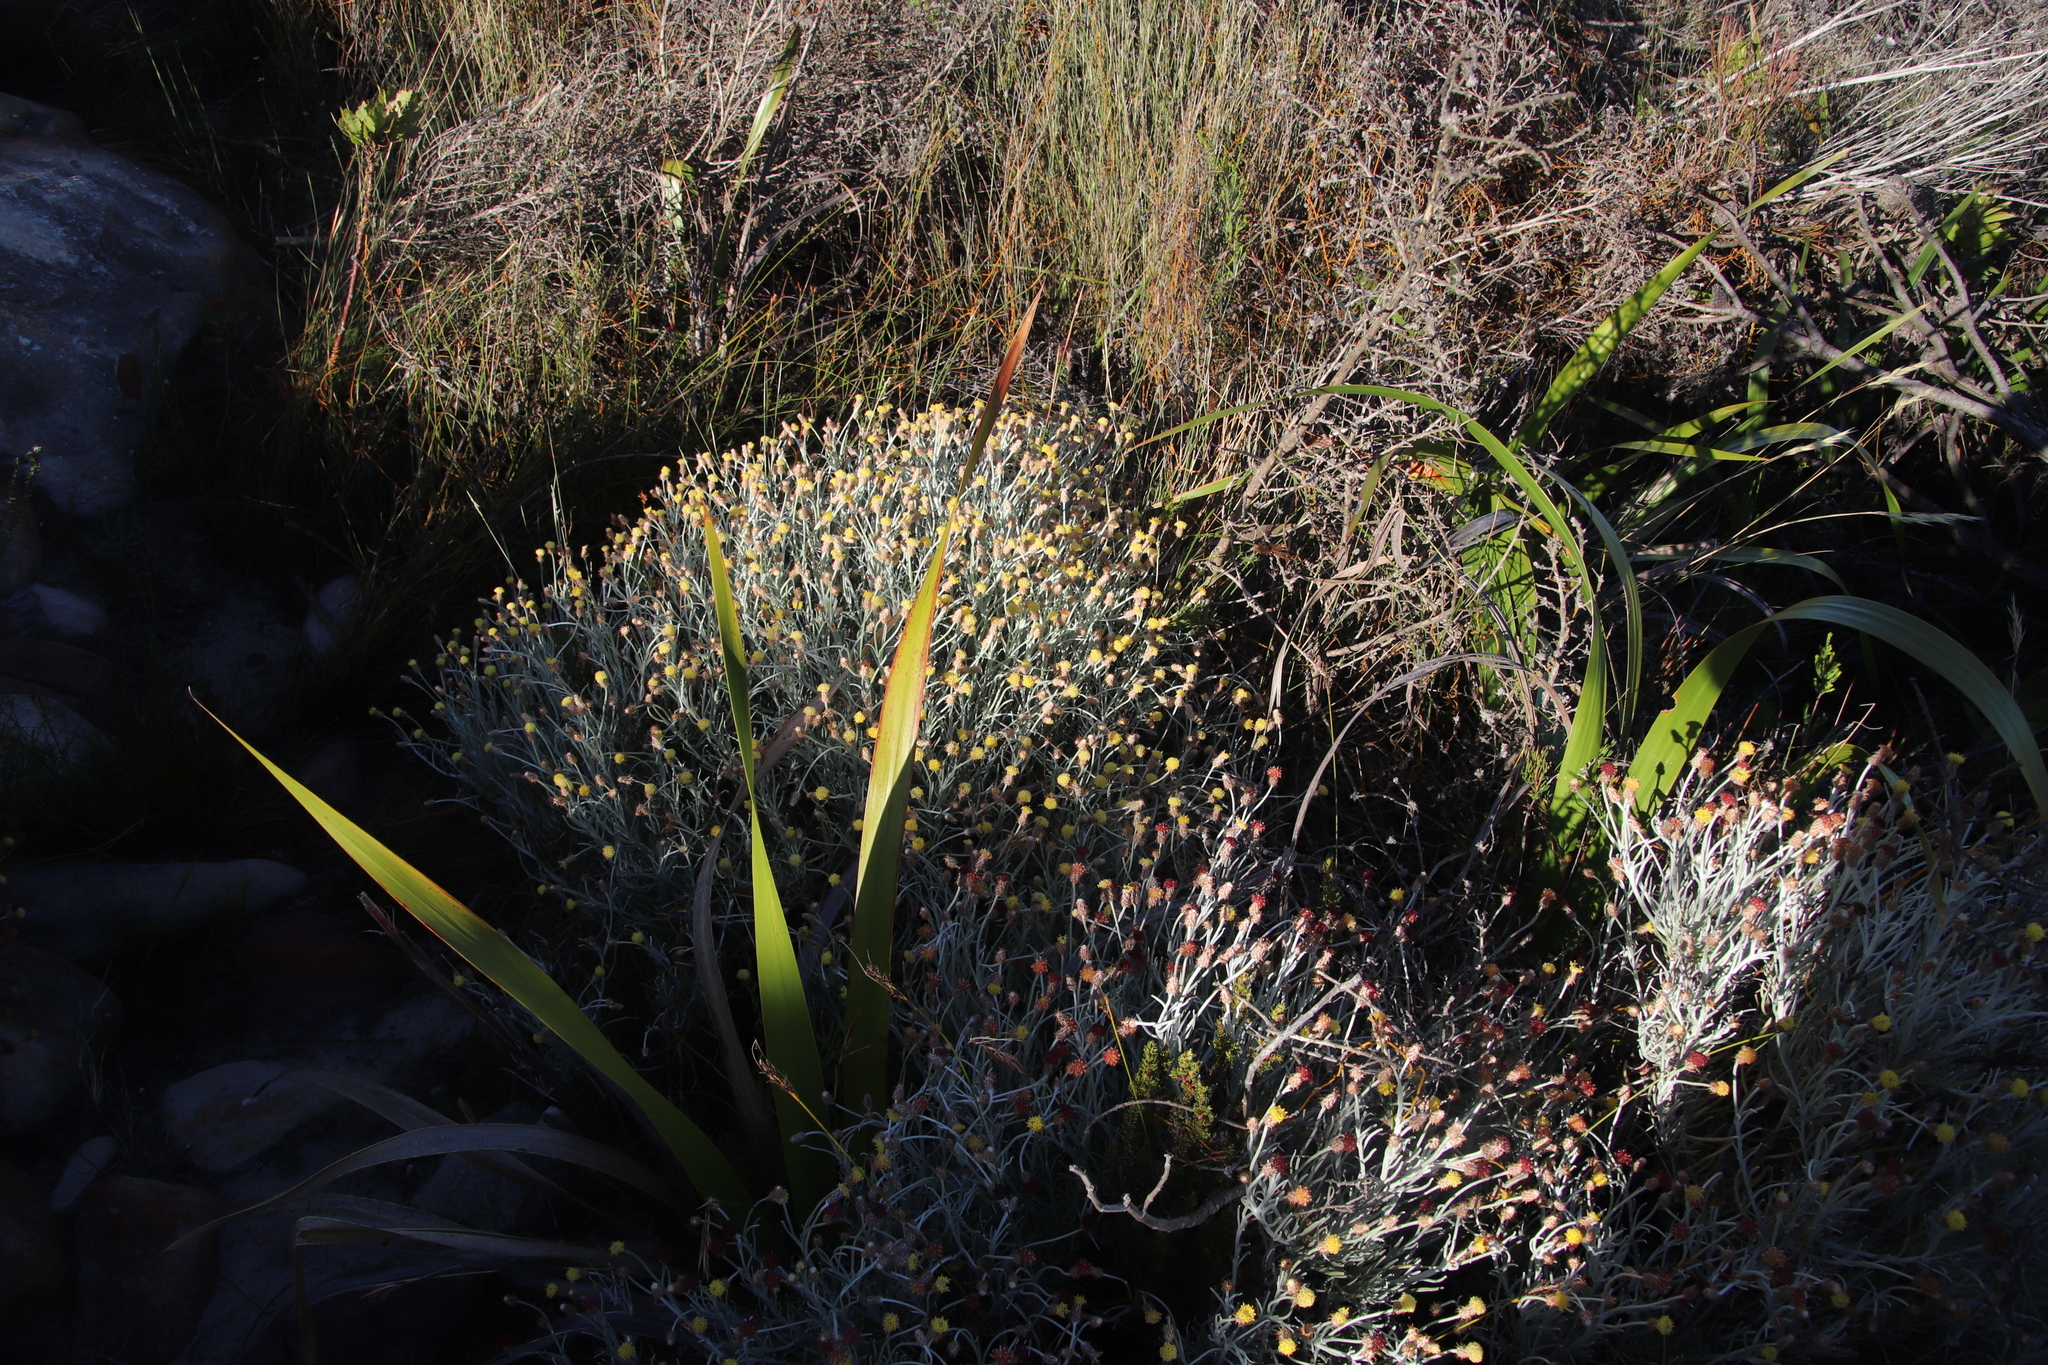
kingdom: Plantae
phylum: Tracheophyta
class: Magnoliopsida
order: Asterales
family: Asteraceae
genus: Syncarpha
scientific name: Syncarpha gnaphaloides
